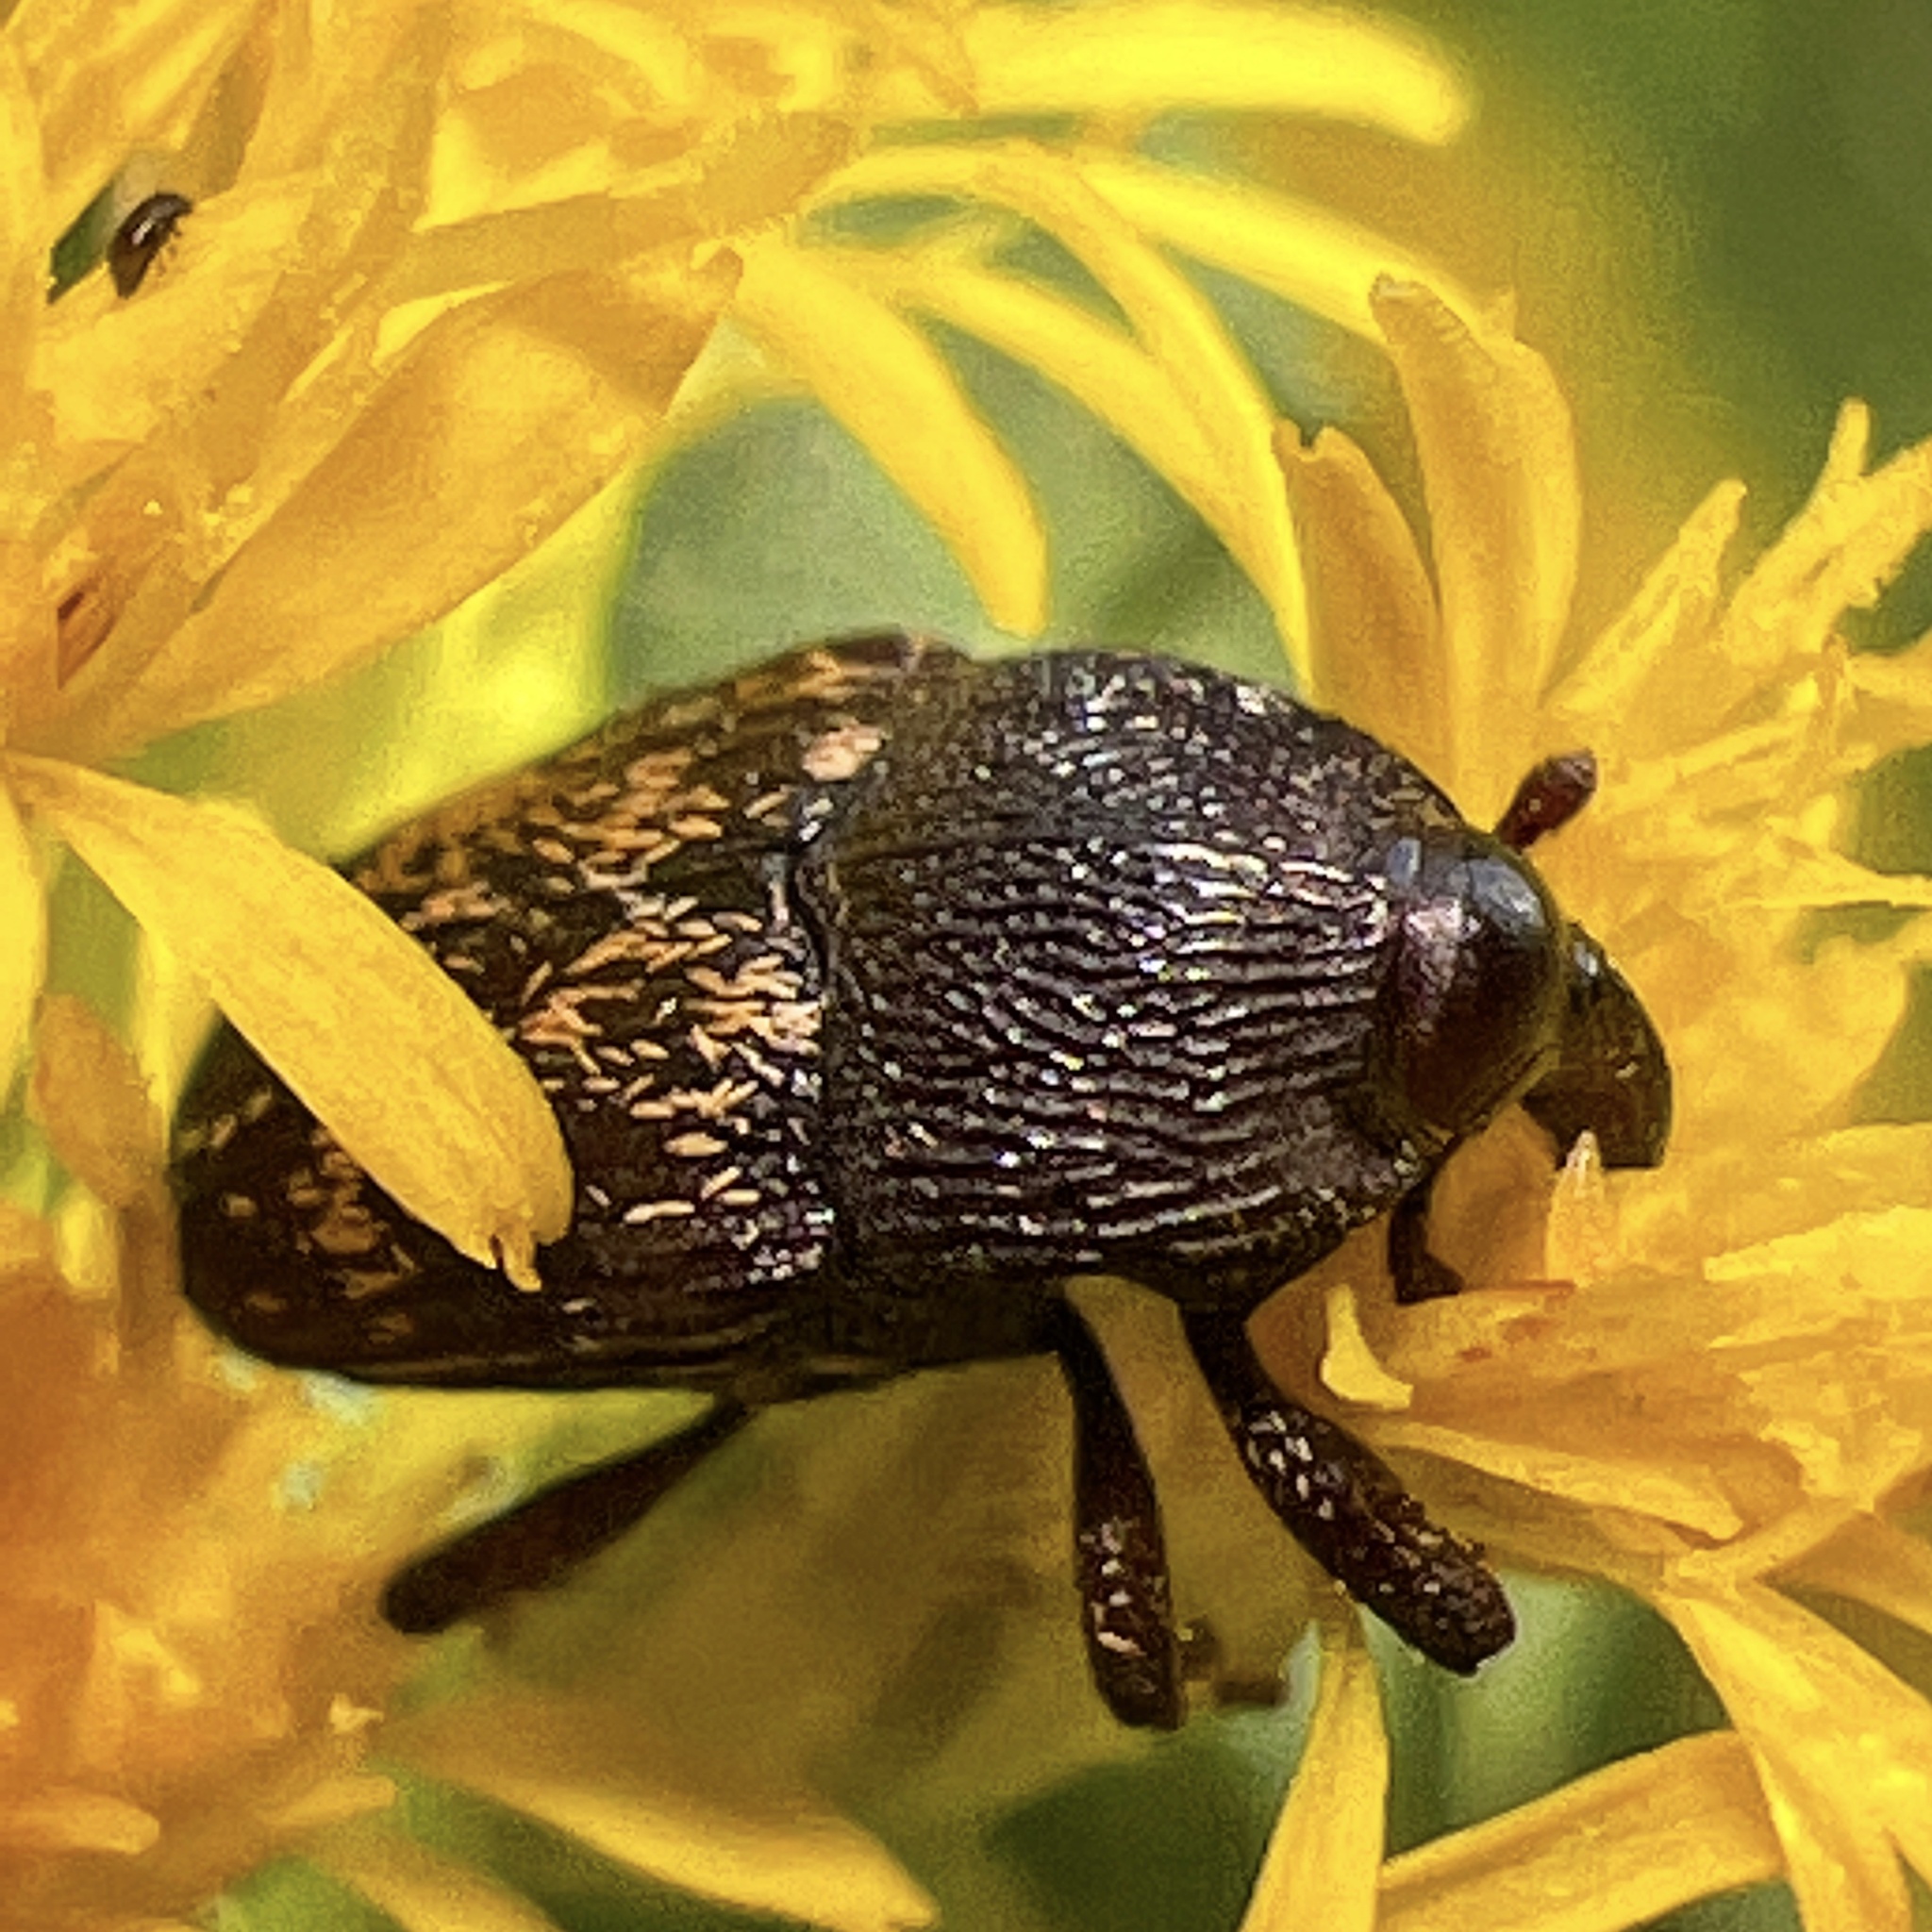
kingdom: Animalia
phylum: Arthropoda
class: Insecta
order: Coleoptera
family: Curculionidae
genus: Glyptobaris
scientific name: Glyptobaris lecontei
